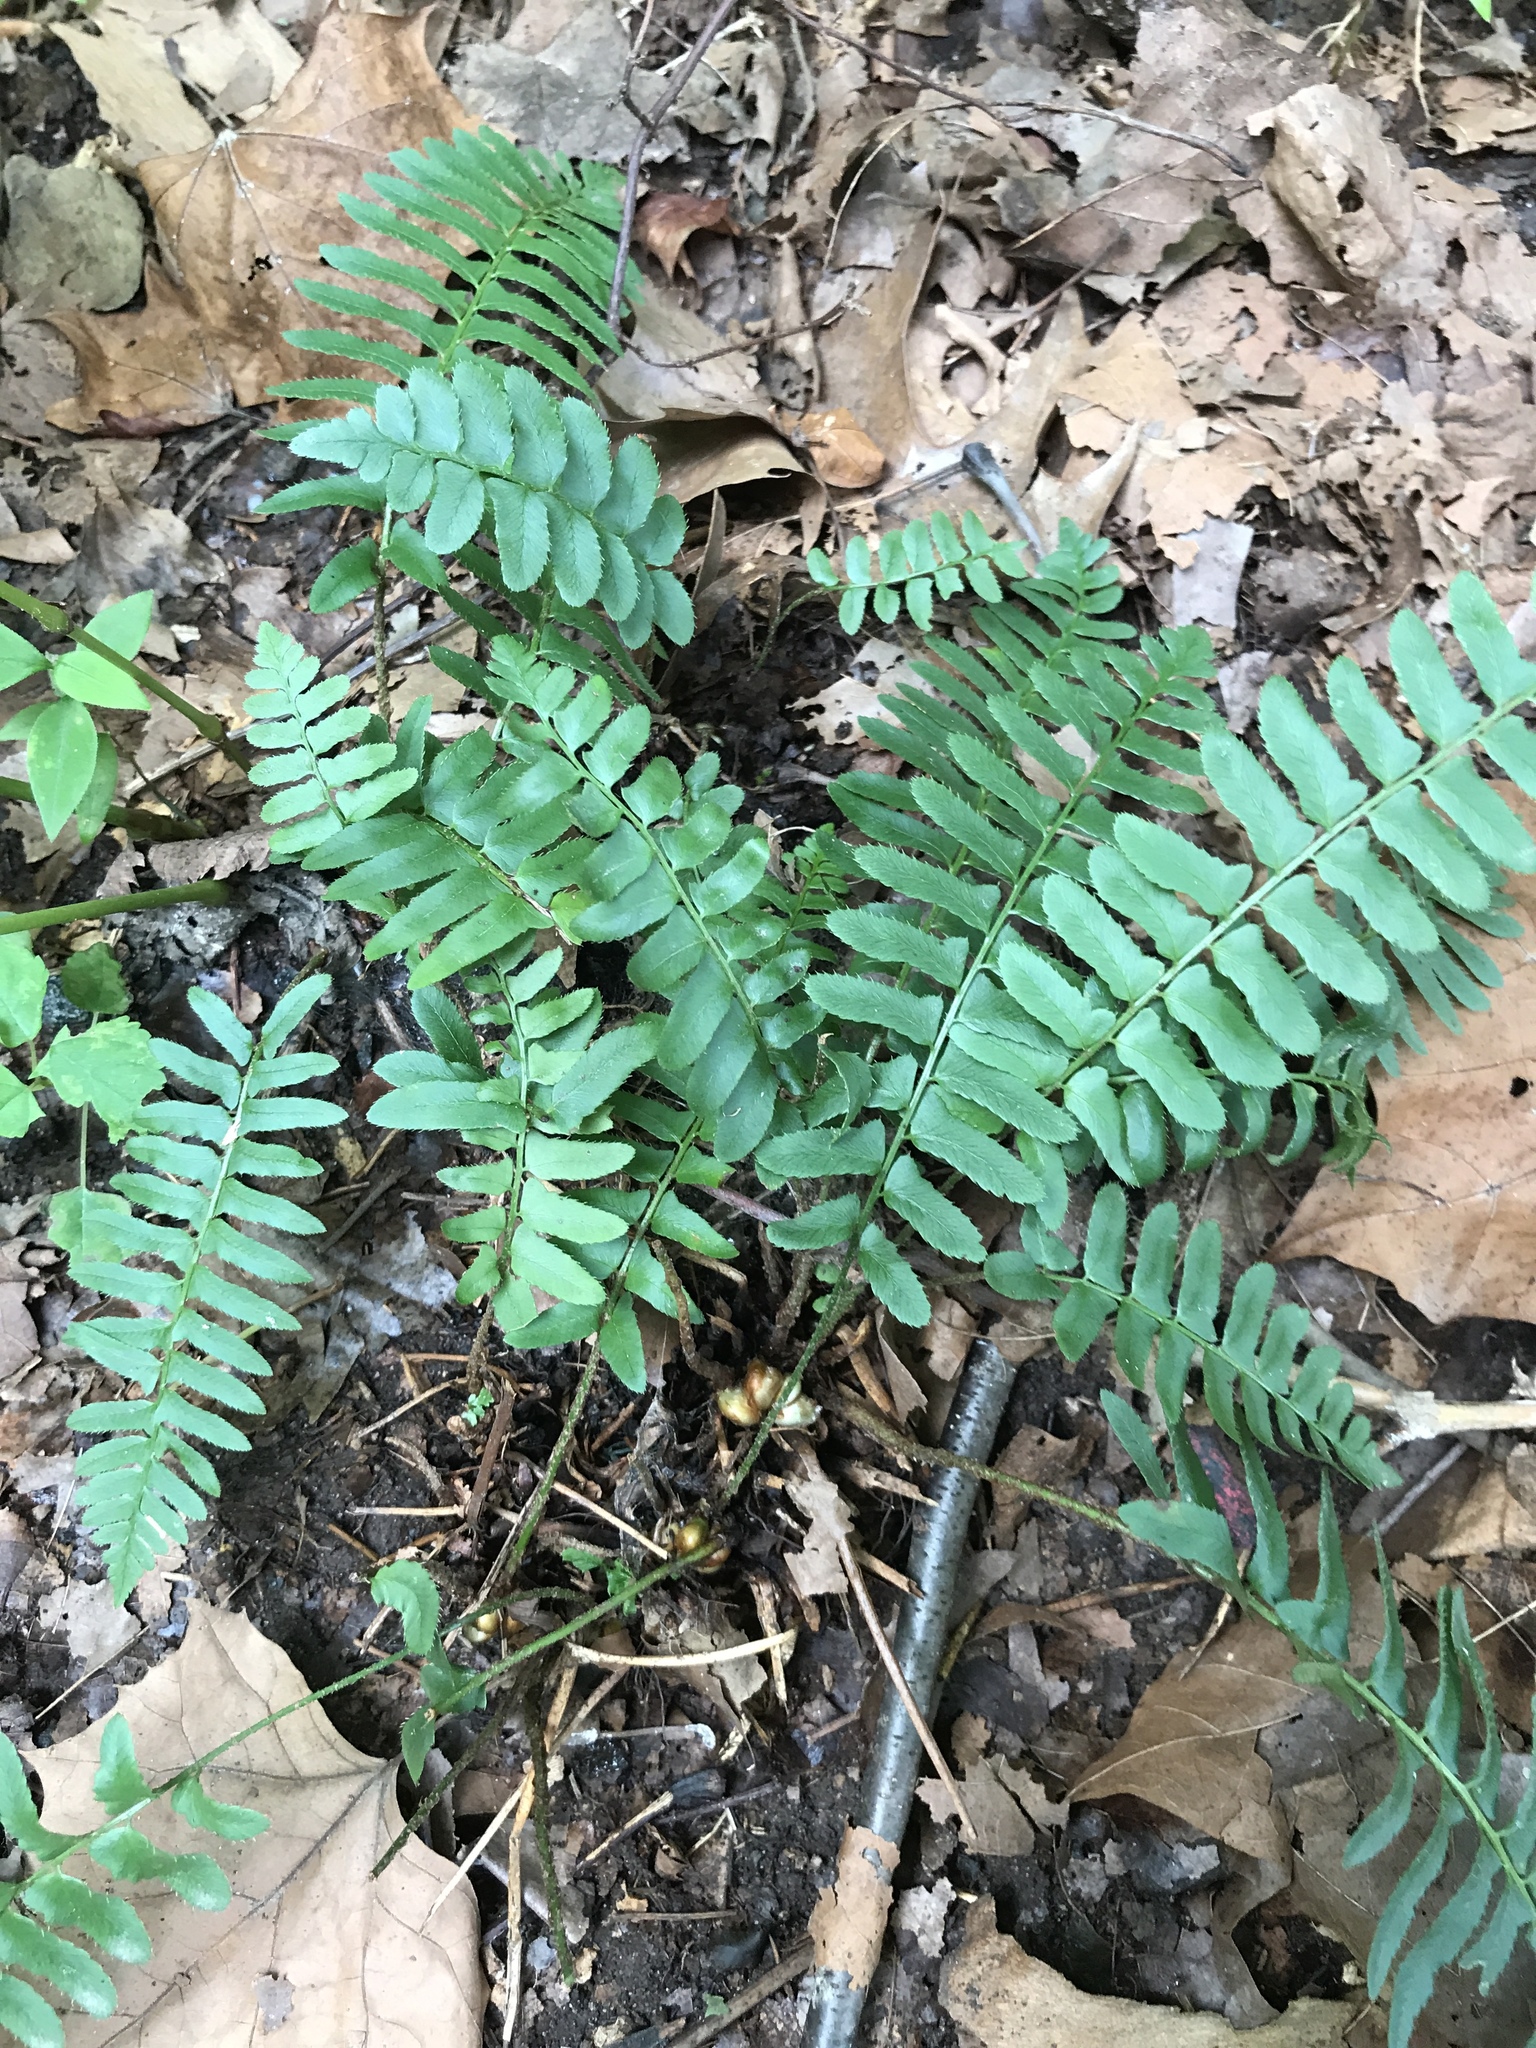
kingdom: Plantae
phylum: Tracheophyta
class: Polypodiopsida
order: Polypodiales
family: Dryopteridaceae
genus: Polystichum
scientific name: Polystichum acrostichoides
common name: Christmas fern
